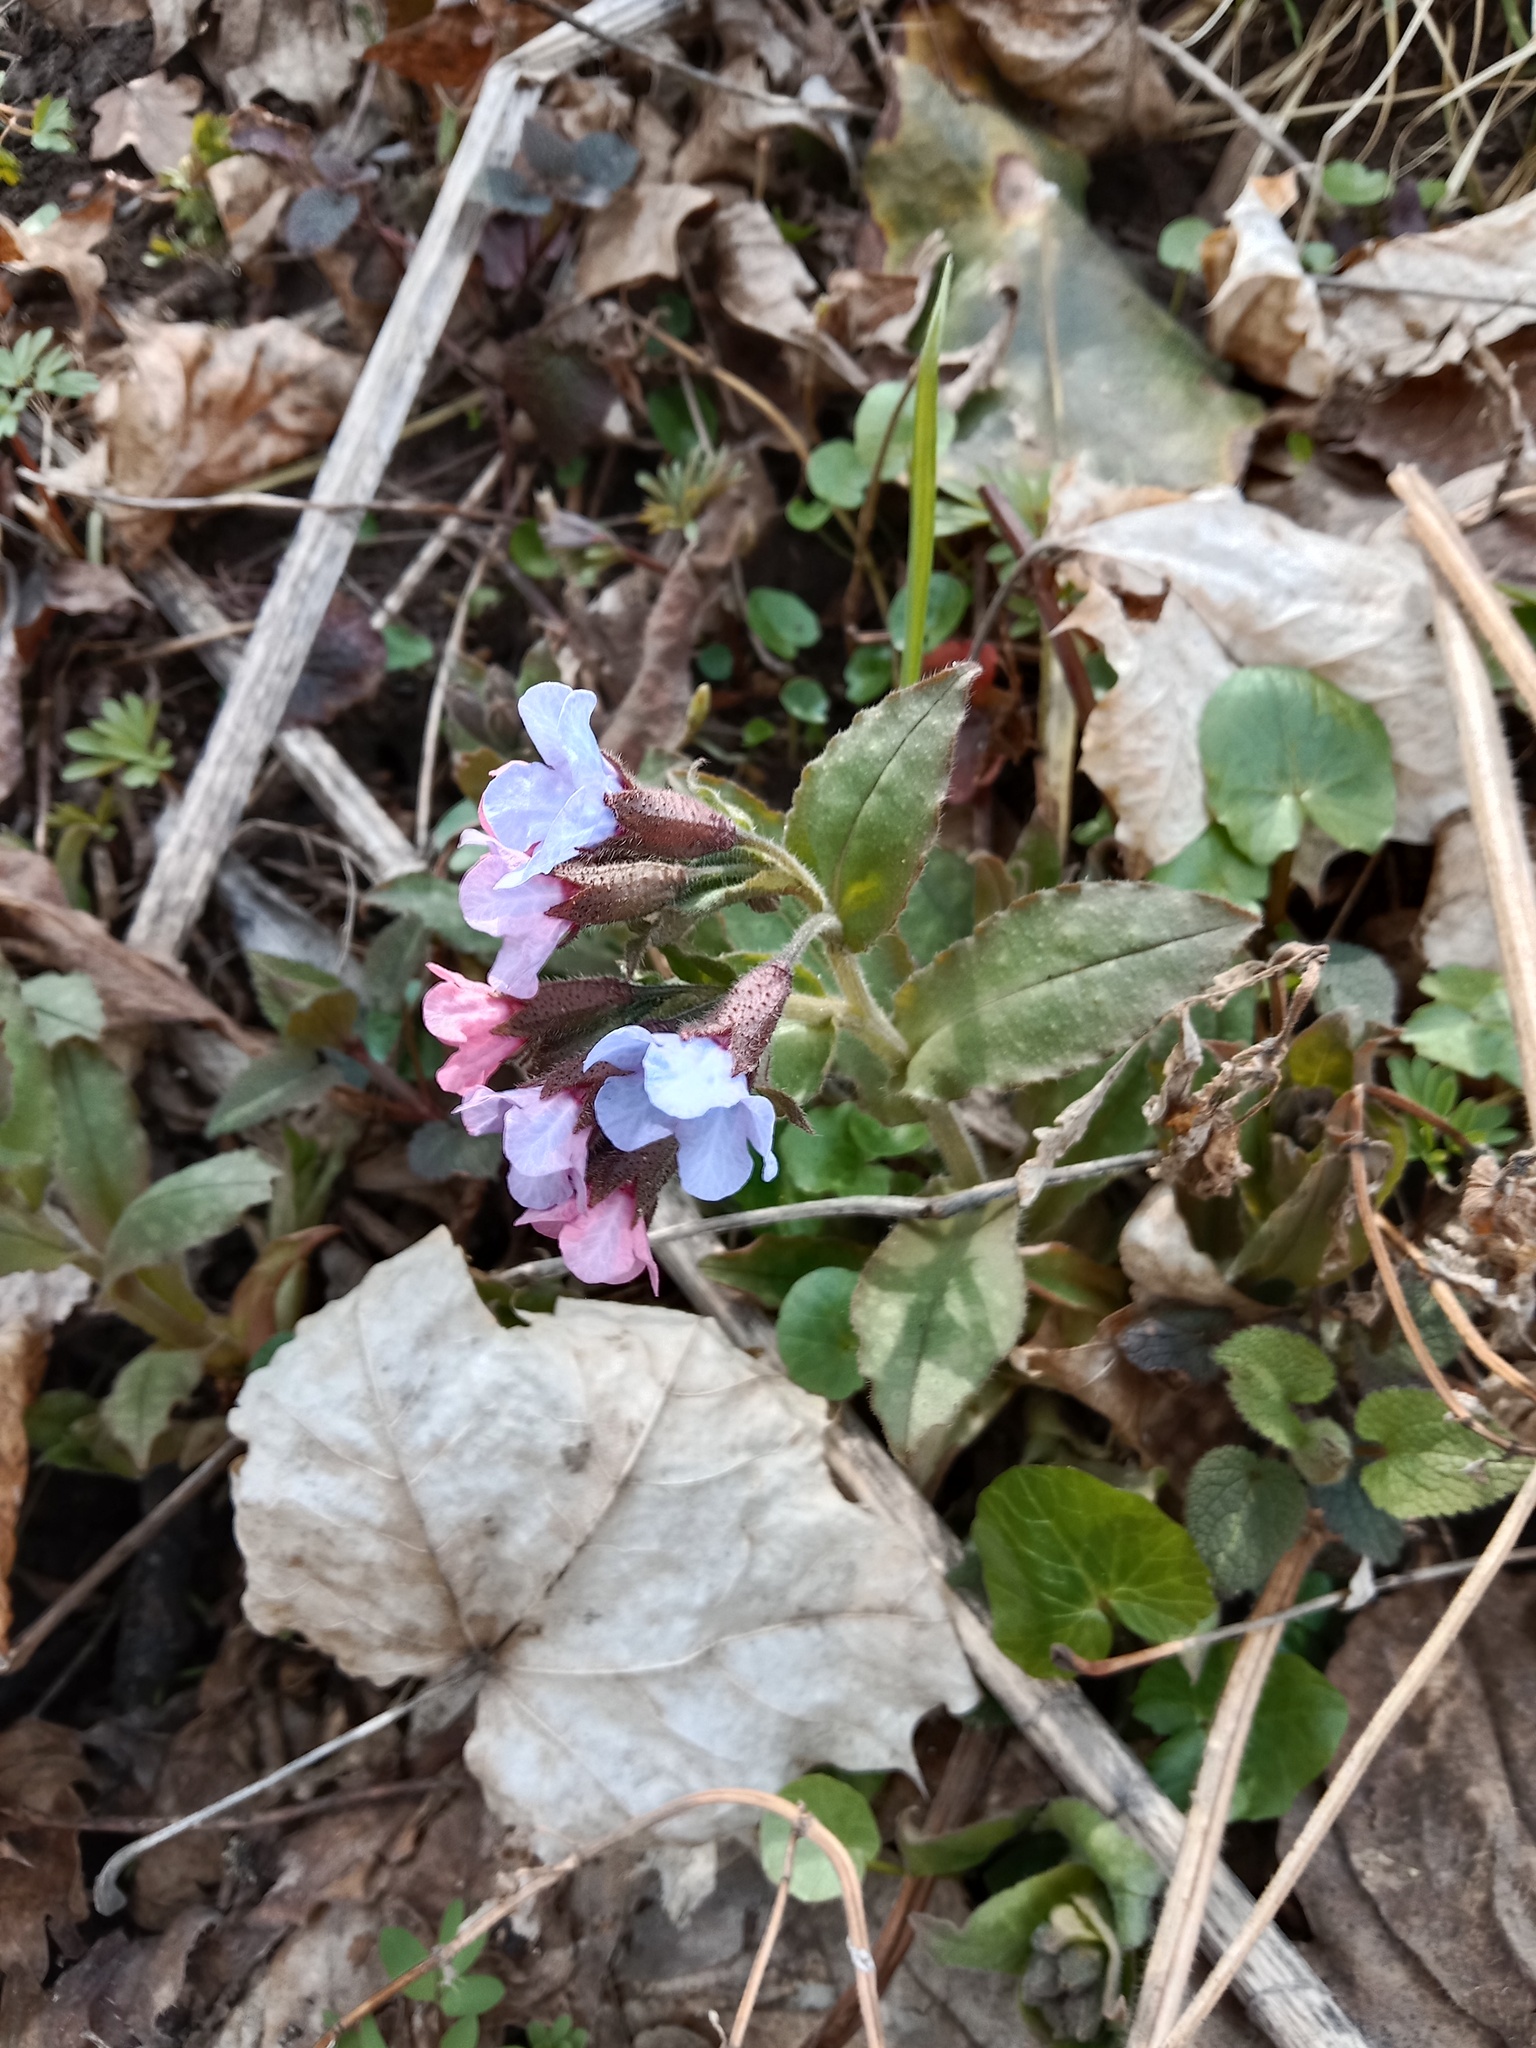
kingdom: Plantae
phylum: Tracheophyta
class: Magnoliopsida
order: Boraginales
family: Boraginaceae
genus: Pulmonaria
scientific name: Pulmonaria obscura
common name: Suffolk lungwort
